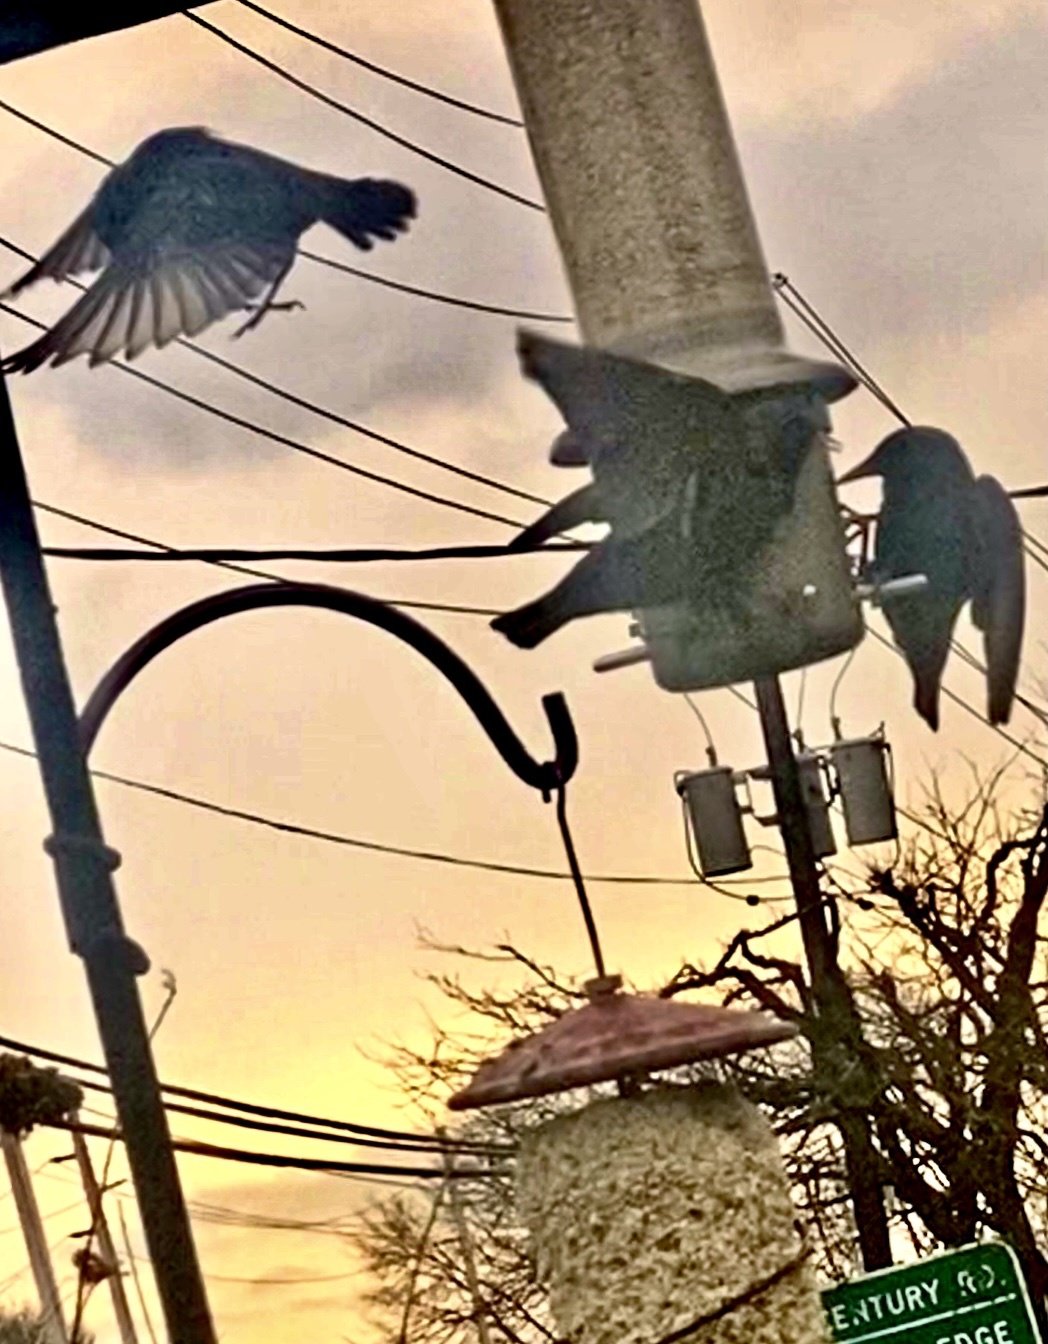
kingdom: Animalia
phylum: Chordata
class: Aves
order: Passeriformes
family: Sturnidae
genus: Sturnus
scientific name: Sturnus vulgaris
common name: Common starling
